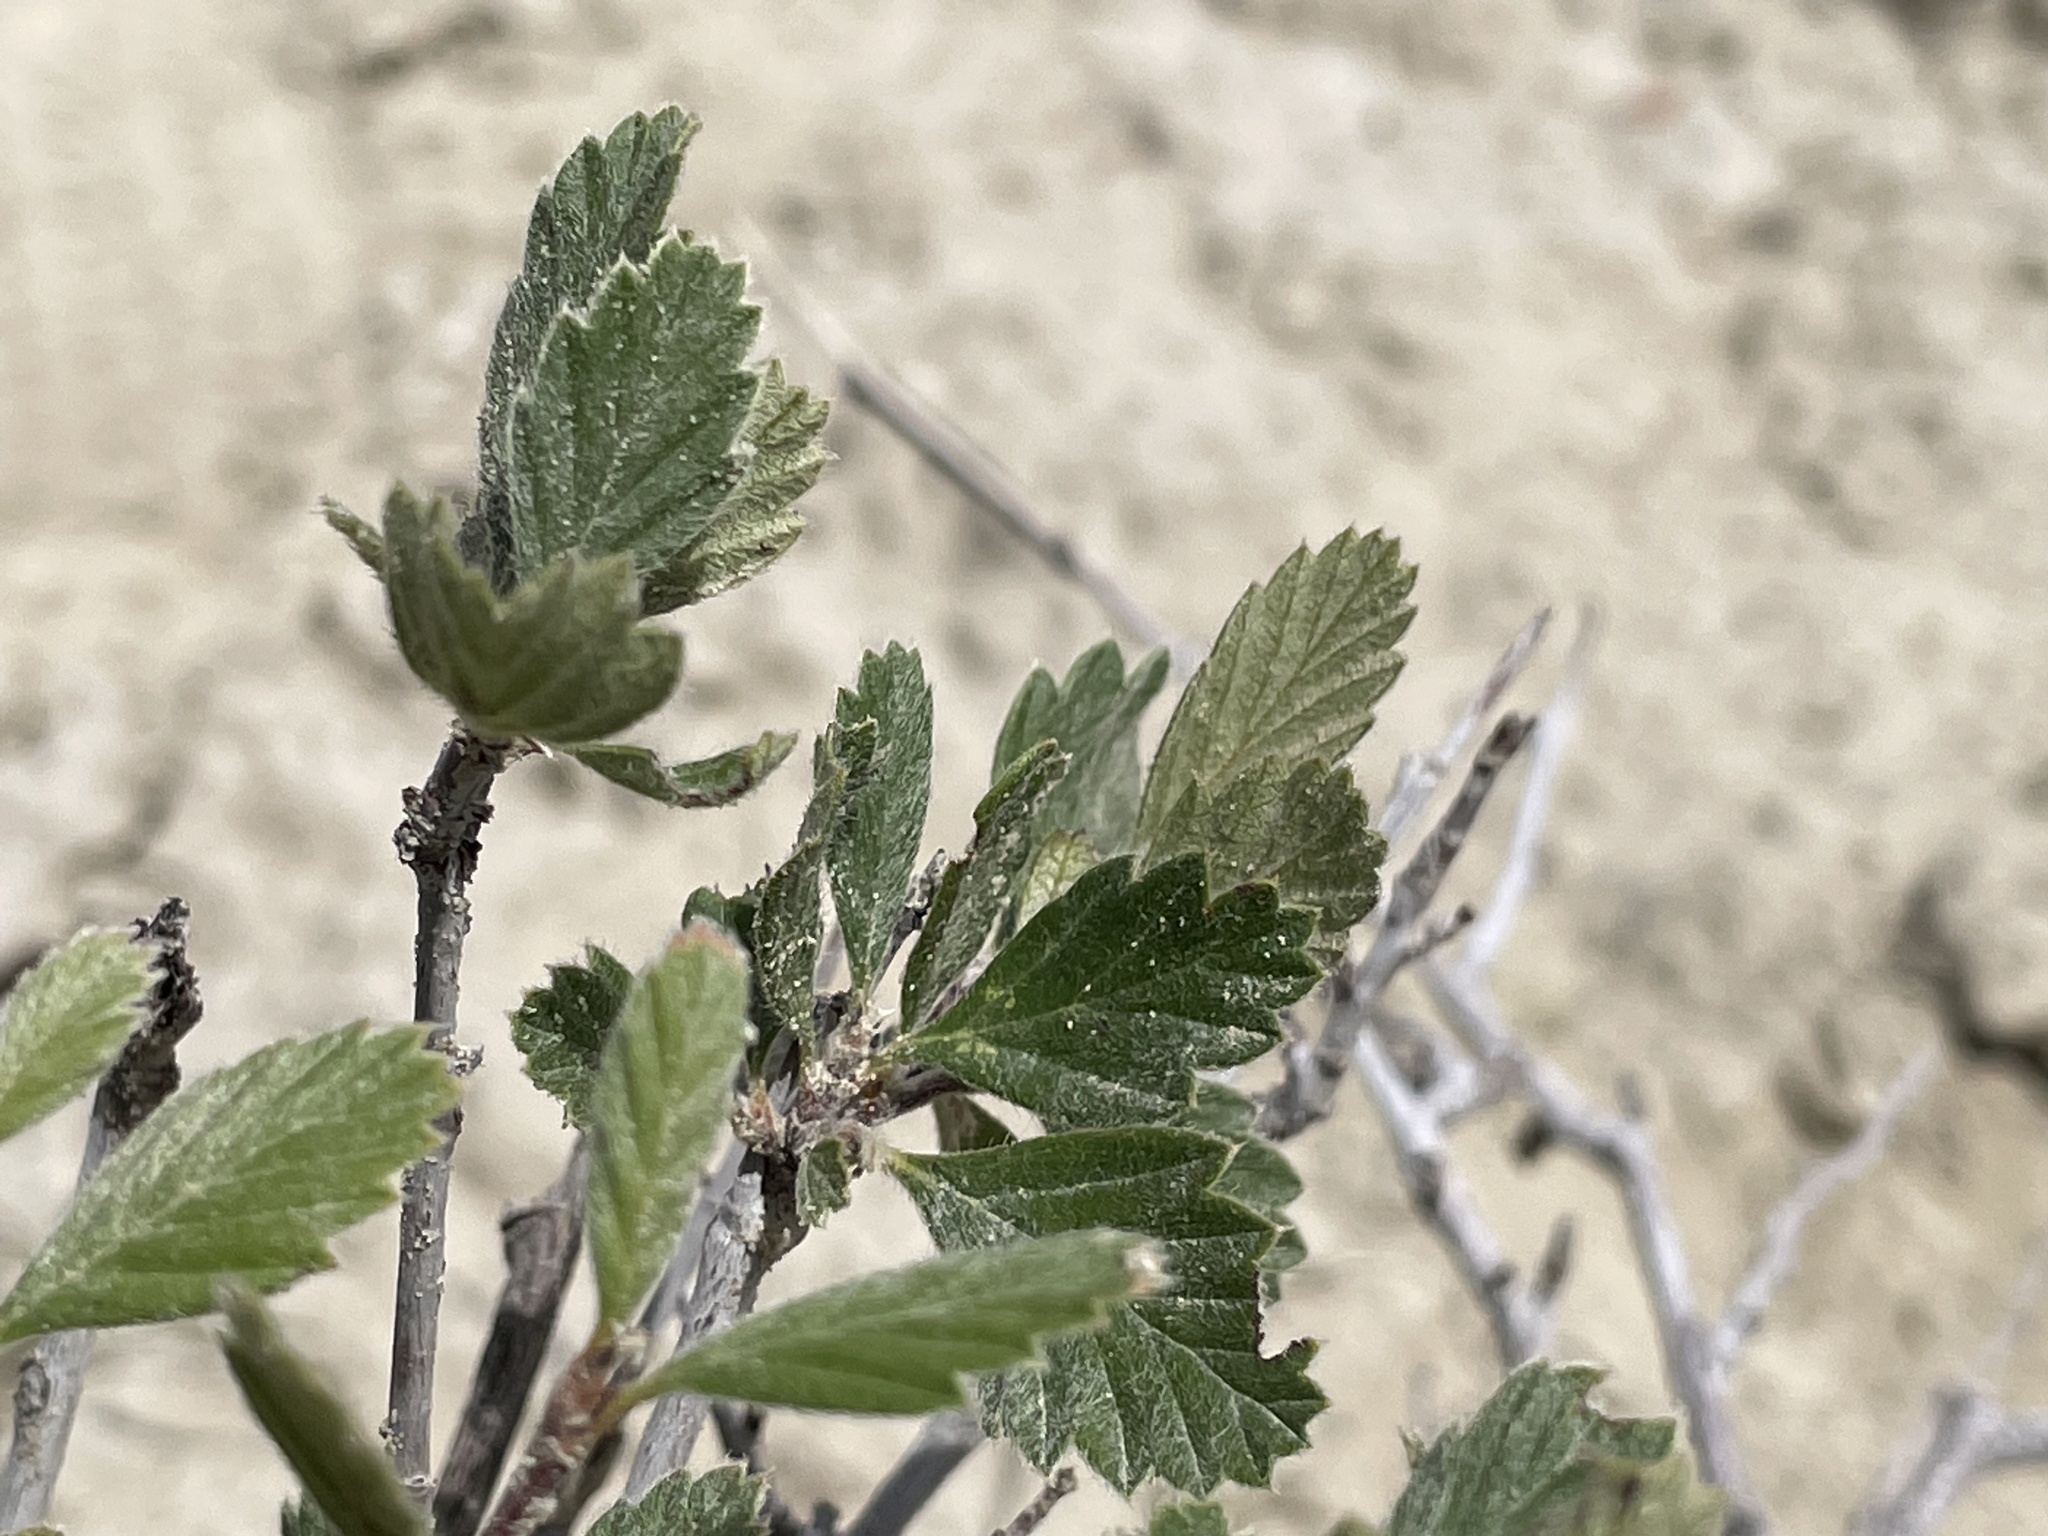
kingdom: Plantae
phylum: Tracheophyta
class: Magnoliopsida
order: Rosales
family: Rosaceae
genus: Cercocarpus
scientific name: Cercocarpus montanus
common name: Alder-leaf cercocarpus
